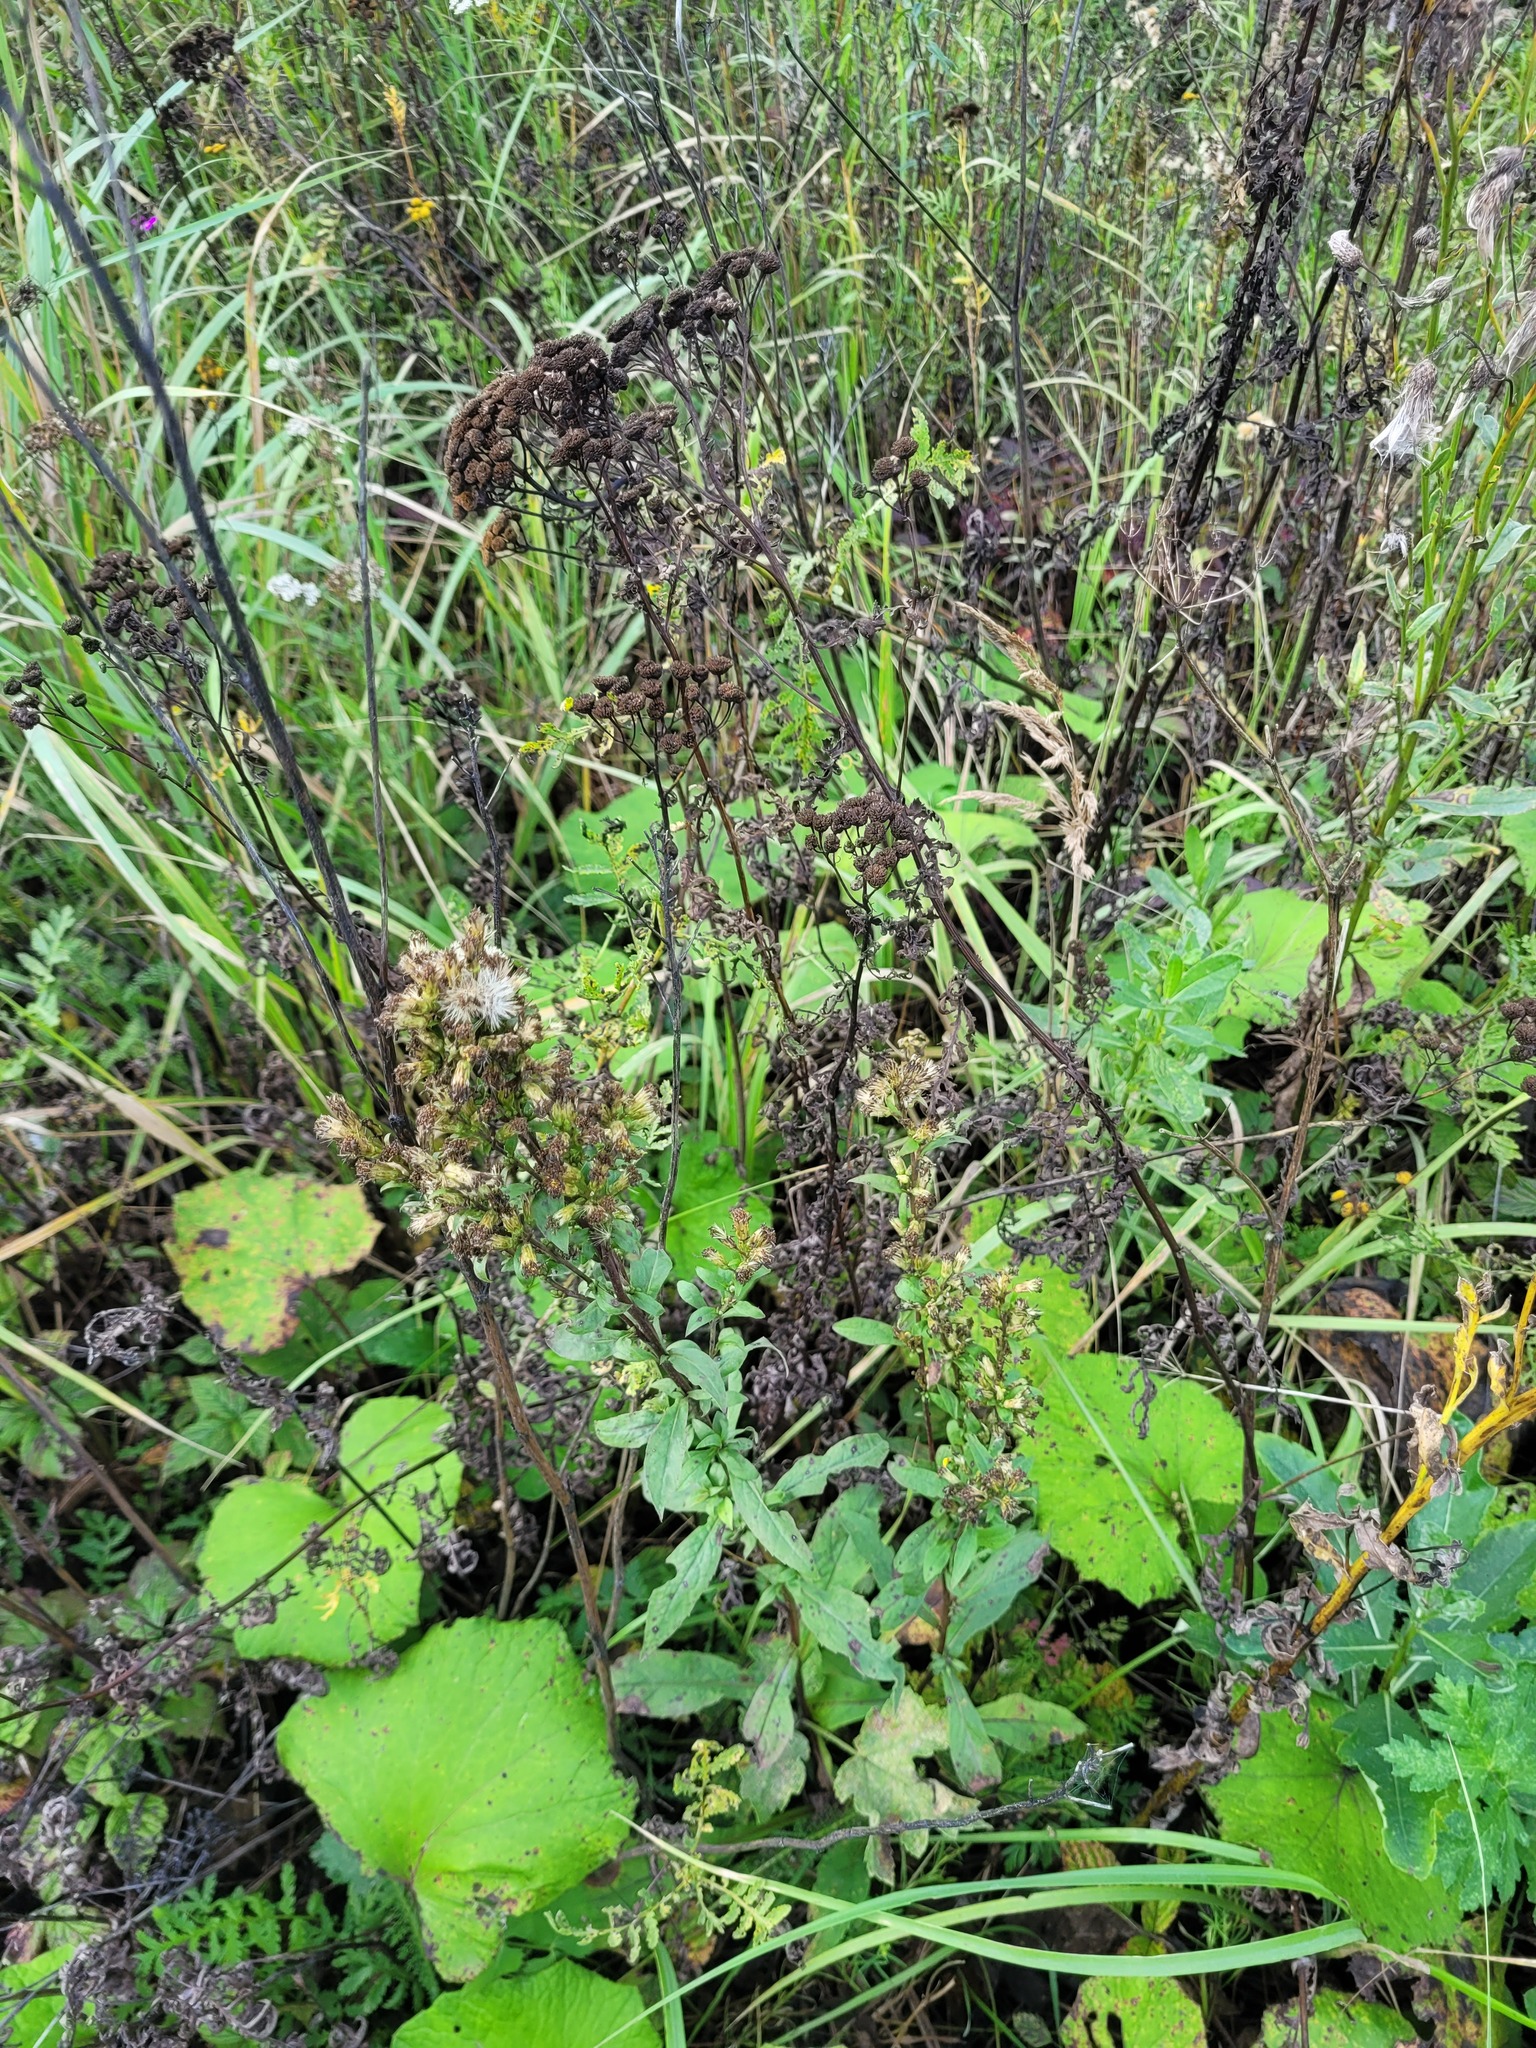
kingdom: Plantae
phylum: Tracheophyta
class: Magnoliopsida
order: Asterales
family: Asteraceae
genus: Solidago
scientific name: Solidago virgaurea
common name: Goldenrod
